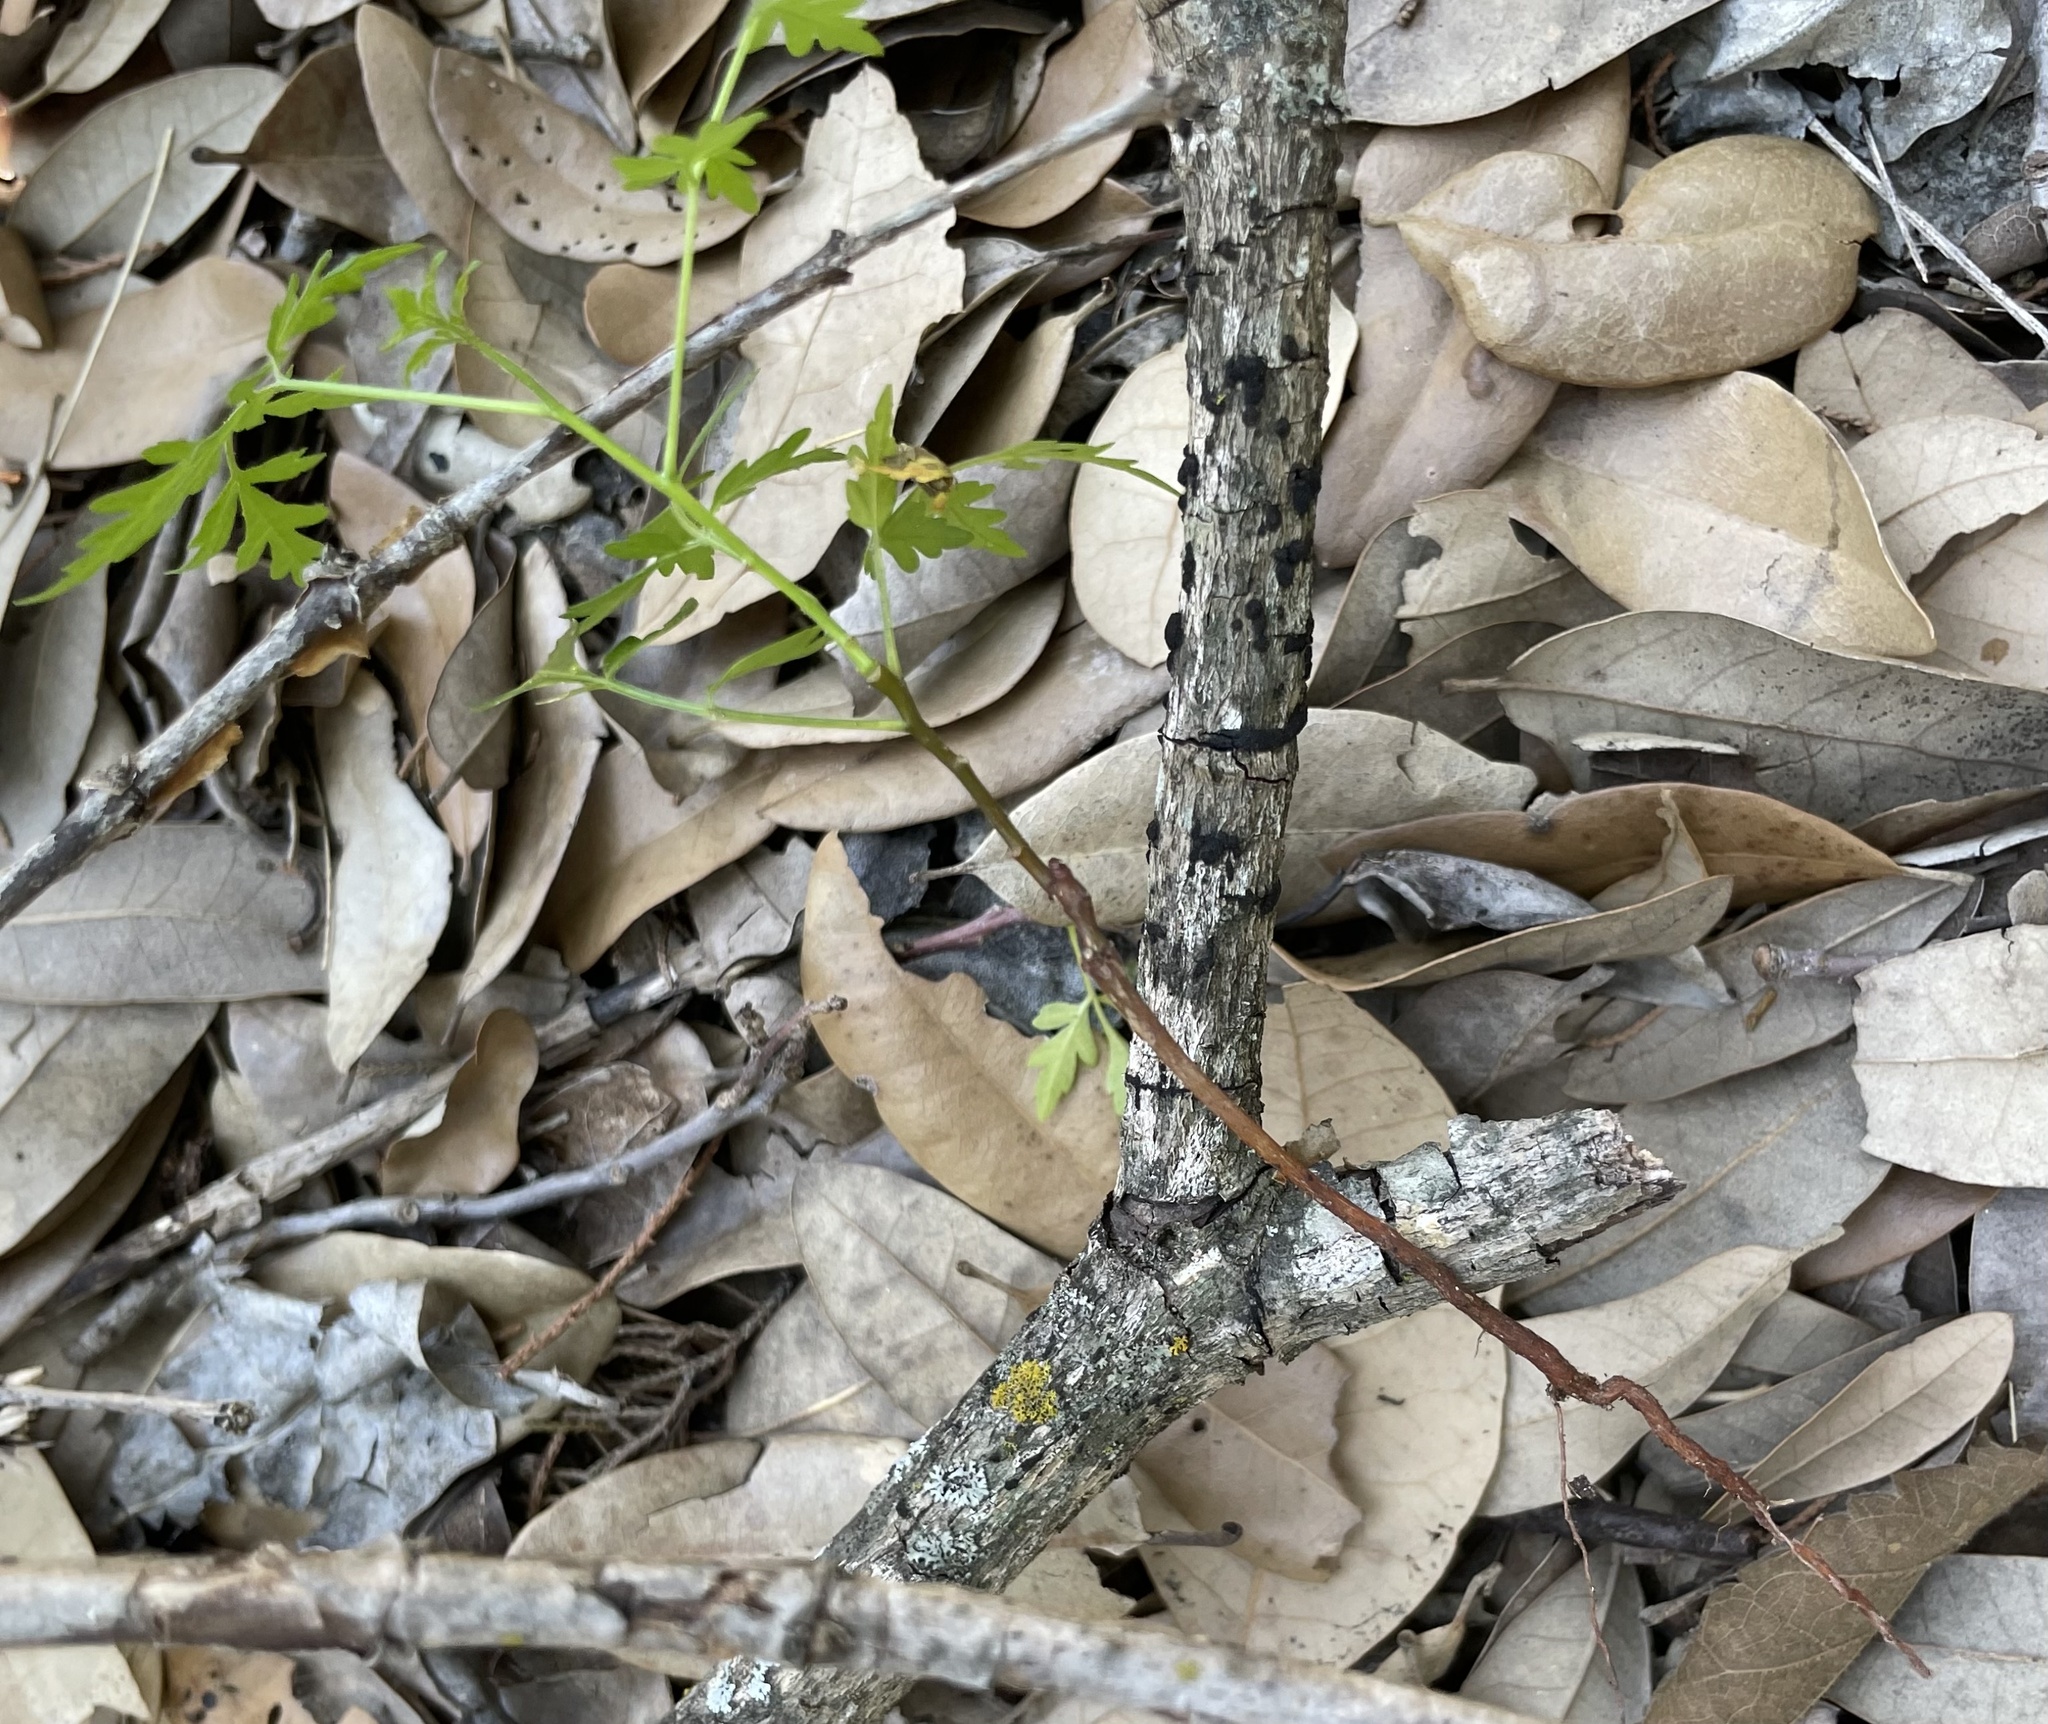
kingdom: Plantae
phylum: Tracheophyta
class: Magnoliopsida
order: Sapindales
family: Meliaceae
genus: Melia
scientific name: Melia azedarach
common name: Chinaberrytree
